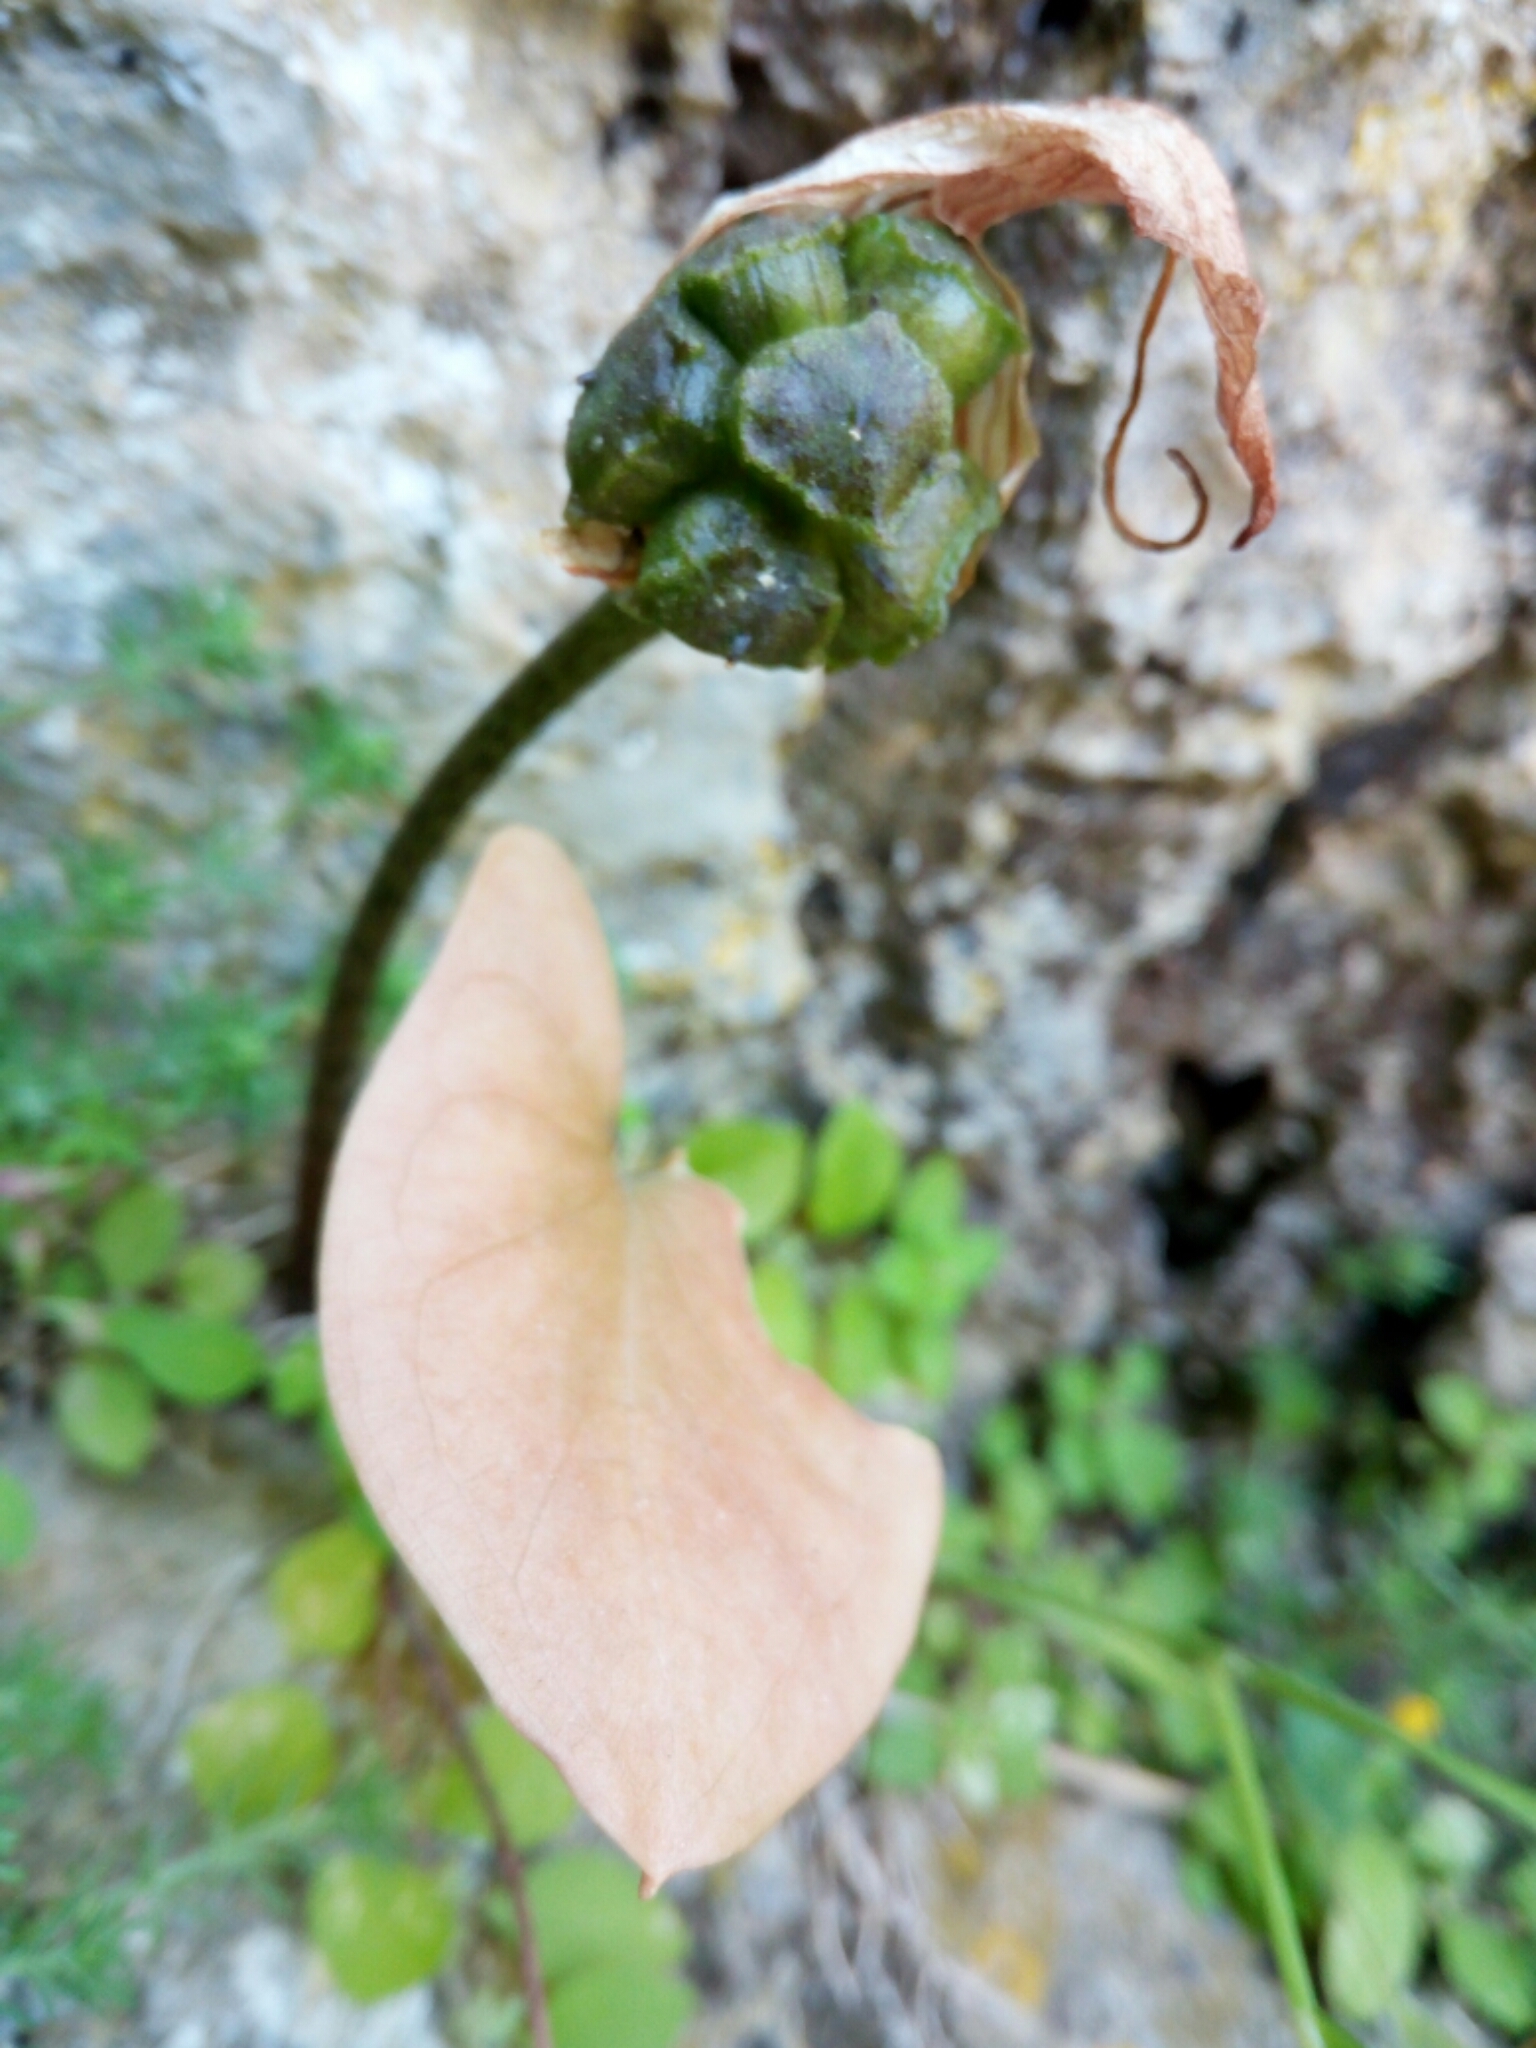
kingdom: Plantae
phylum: Tracheophyta
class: Liliopsida
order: Alismatales
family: Araceae
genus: Arisarum
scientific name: Arisarum vulgare
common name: Common arisarum
